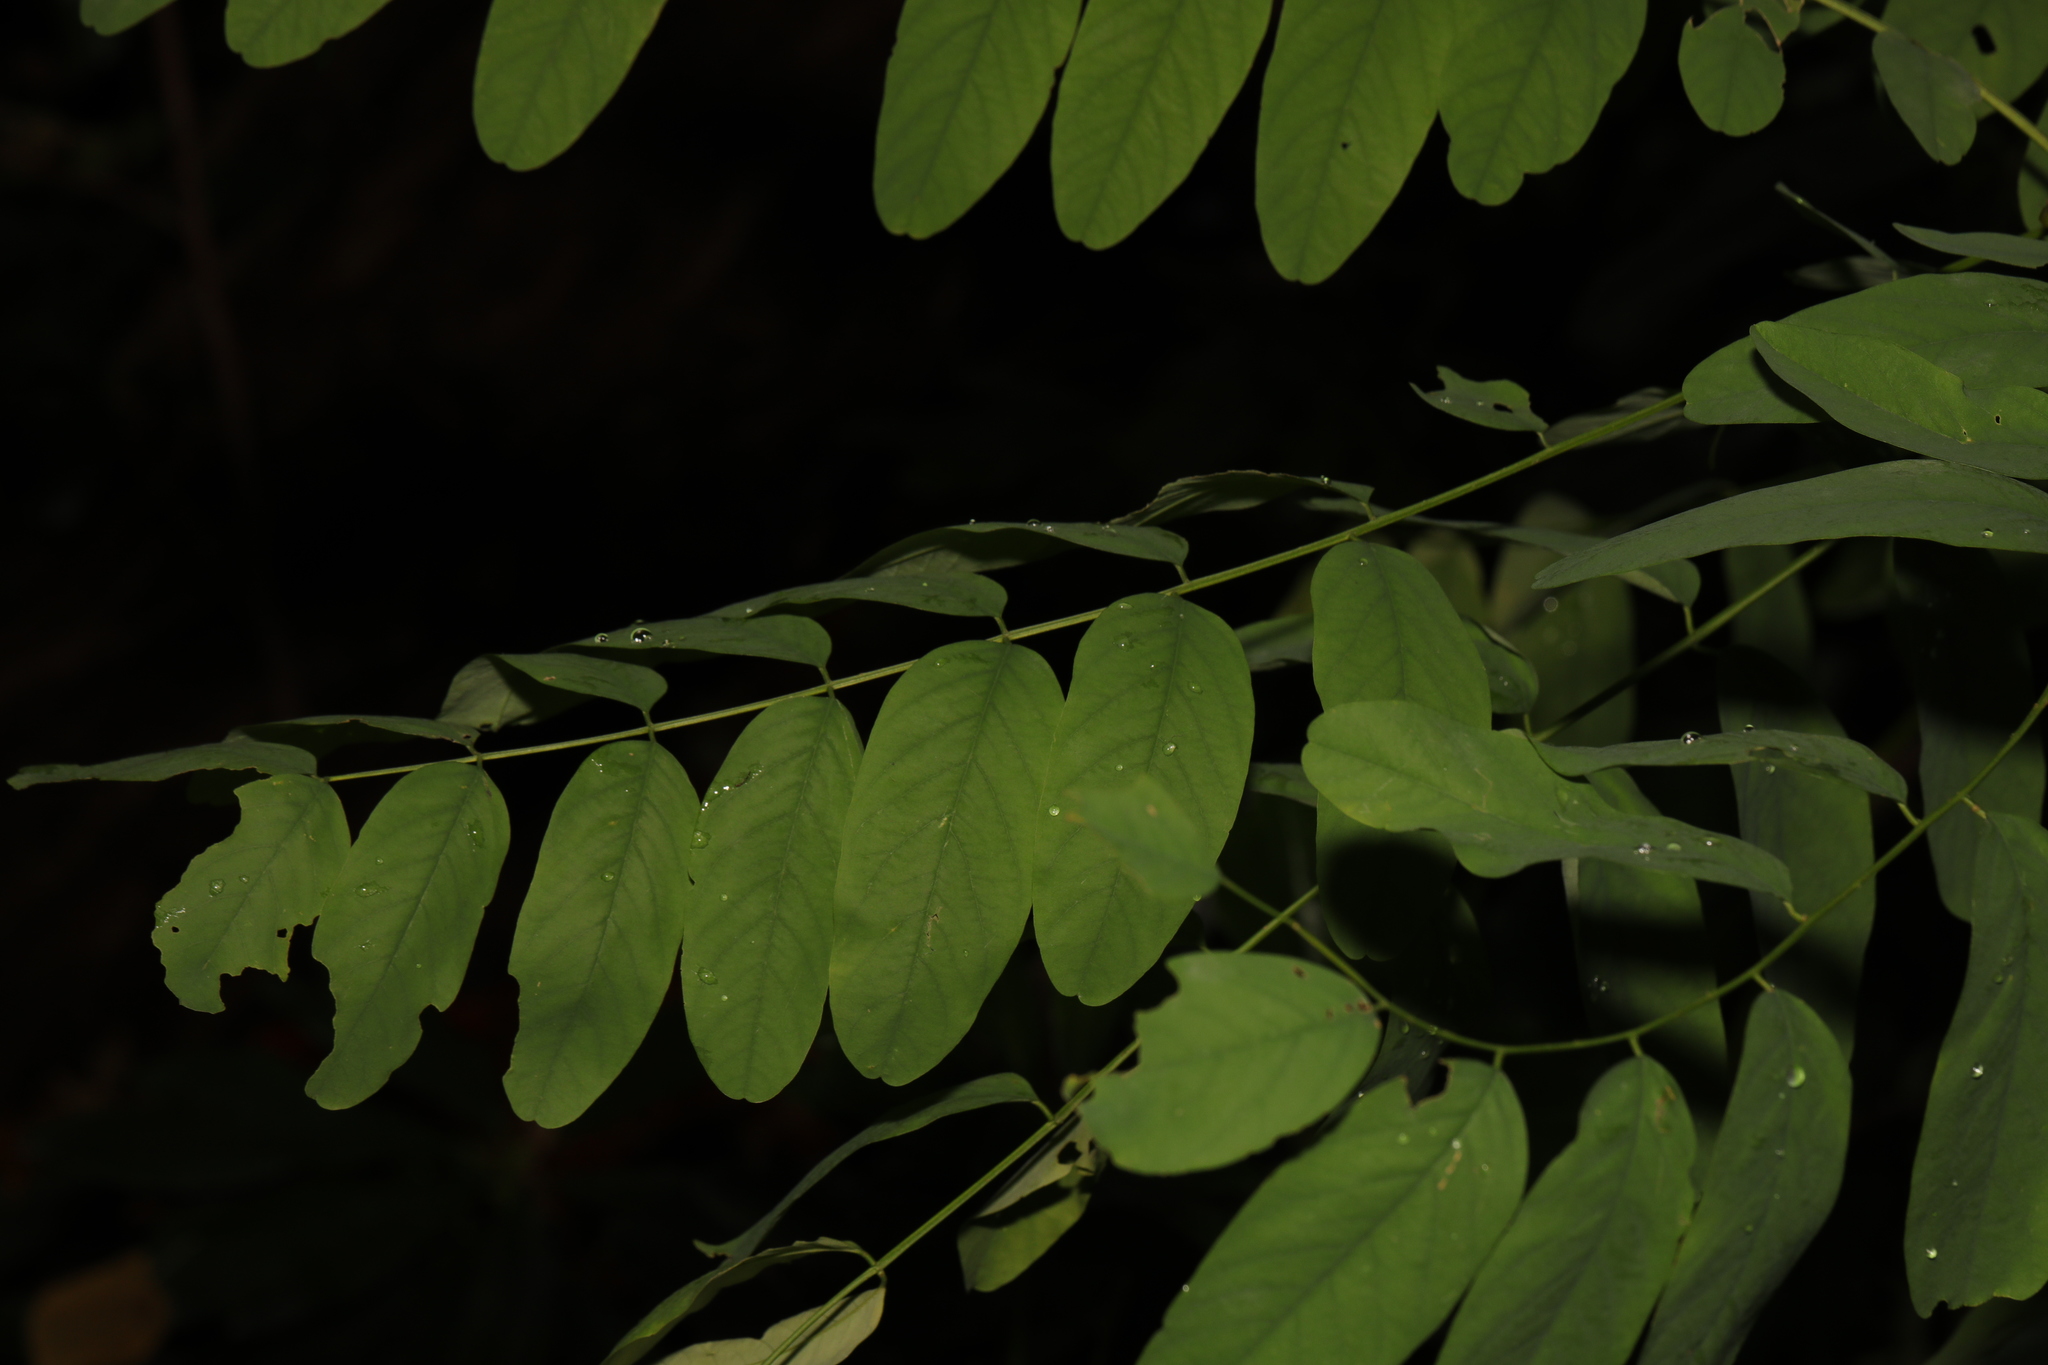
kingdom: Plantae
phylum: Tracheophyta
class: Magnoliopsida
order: Fabales
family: Fabaceae
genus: Robinia
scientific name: Robinia pseudoacacia
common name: Black locust
